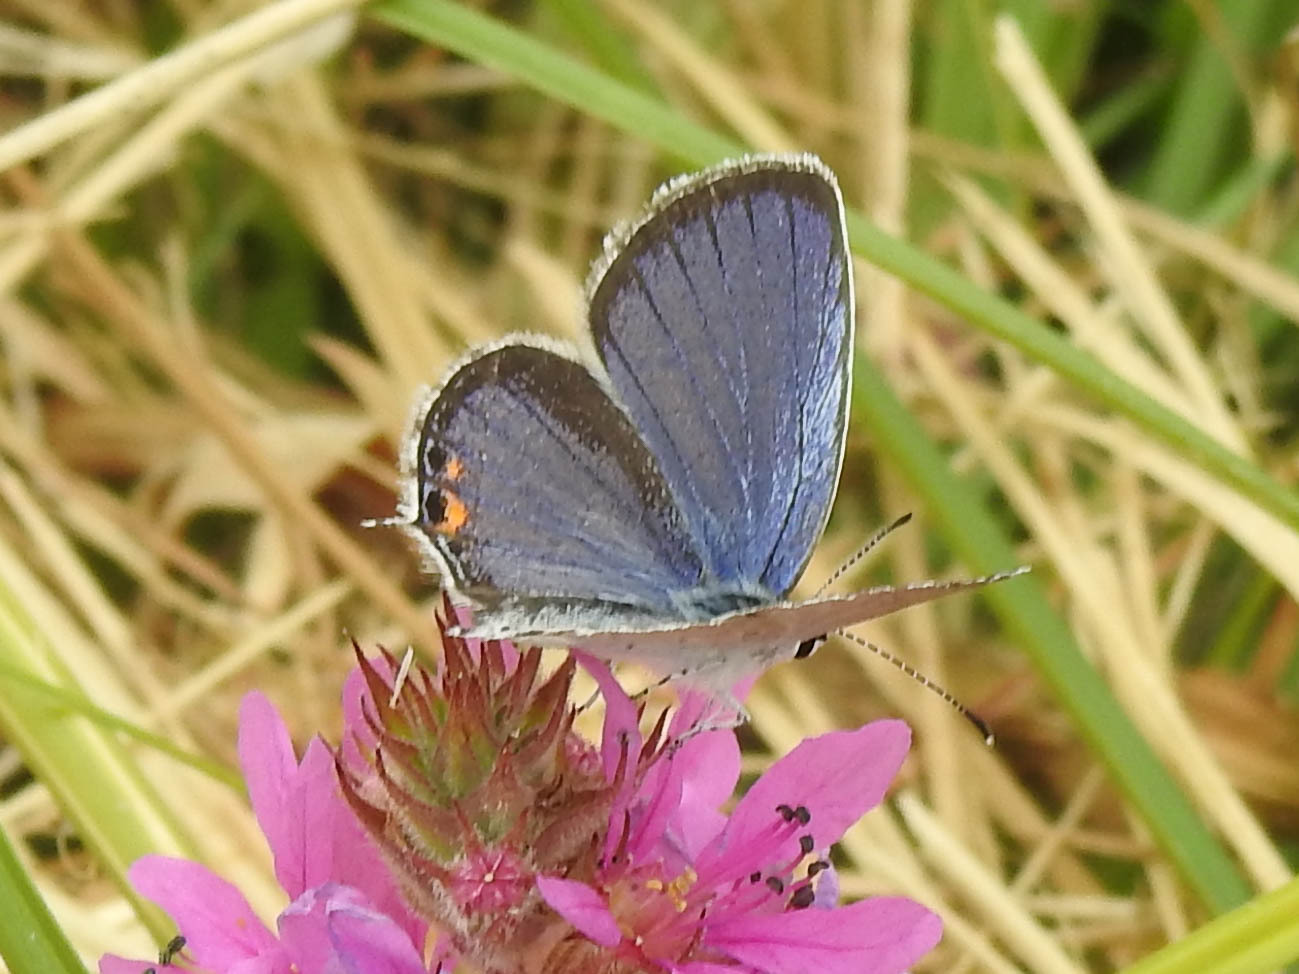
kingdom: Animalia
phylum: Arthropoda
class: Insecta
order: Lepidoptera
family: Lycaenidae
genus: Elkalyce
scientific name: Elkalyce comyntas
